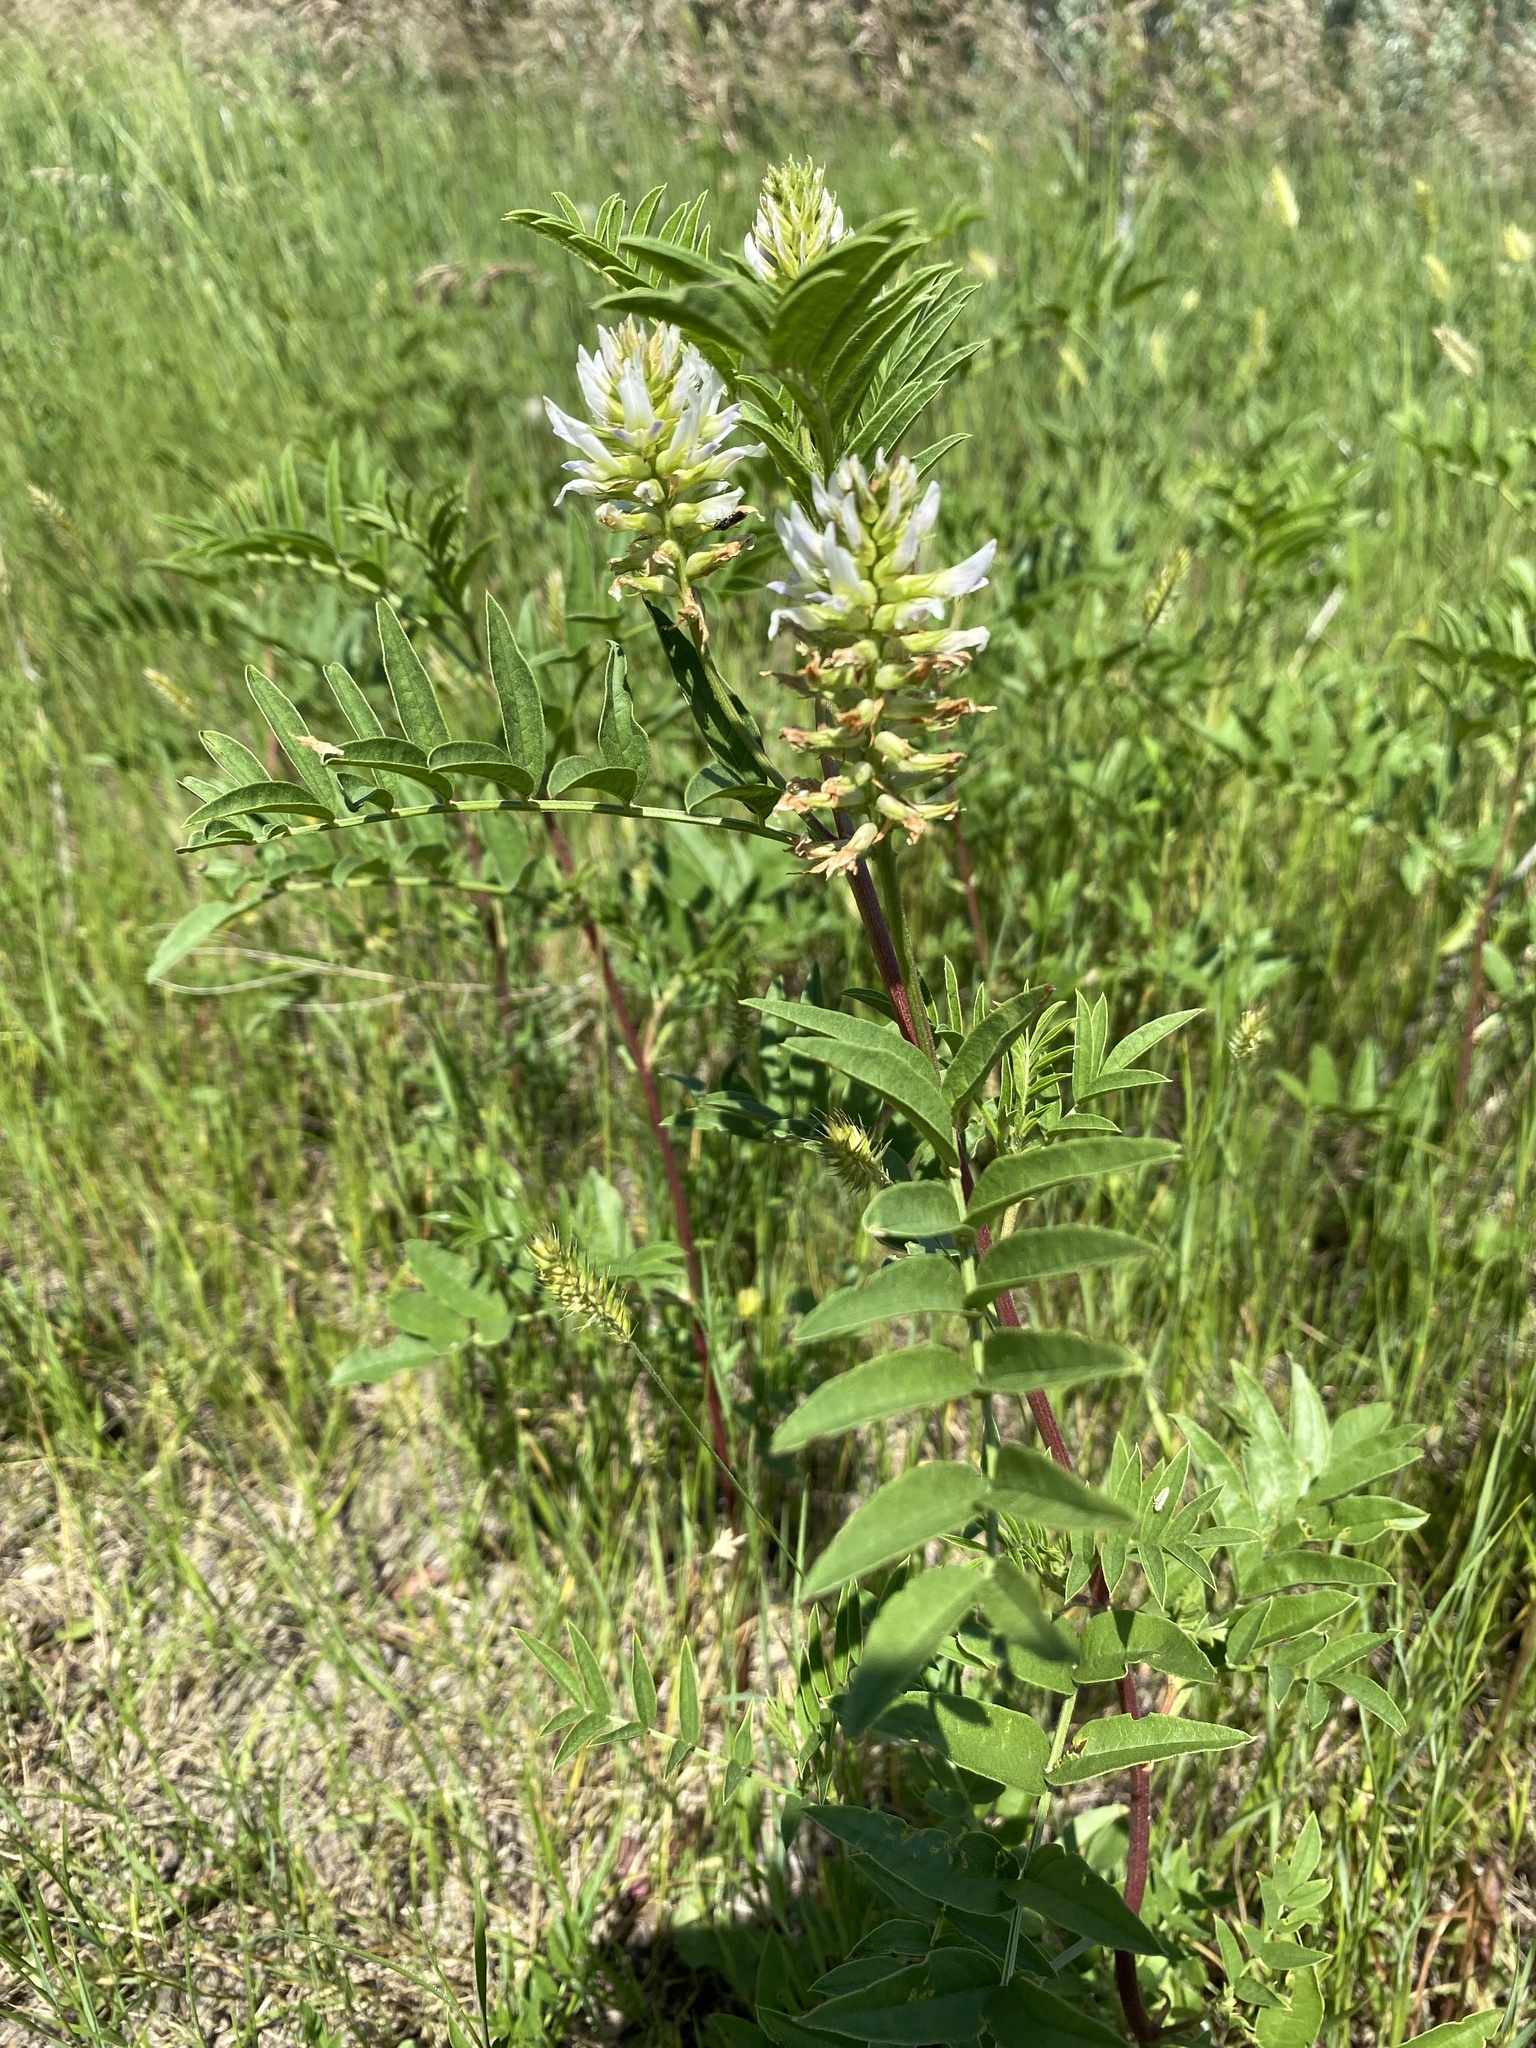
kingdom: Plantae
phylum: Tracheophyta
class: Magnoliopsida
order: Fabales
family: Fabaceae
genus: Glycyrrhiza
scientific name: Glycyrrhiza lepidota
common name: American liquorice
